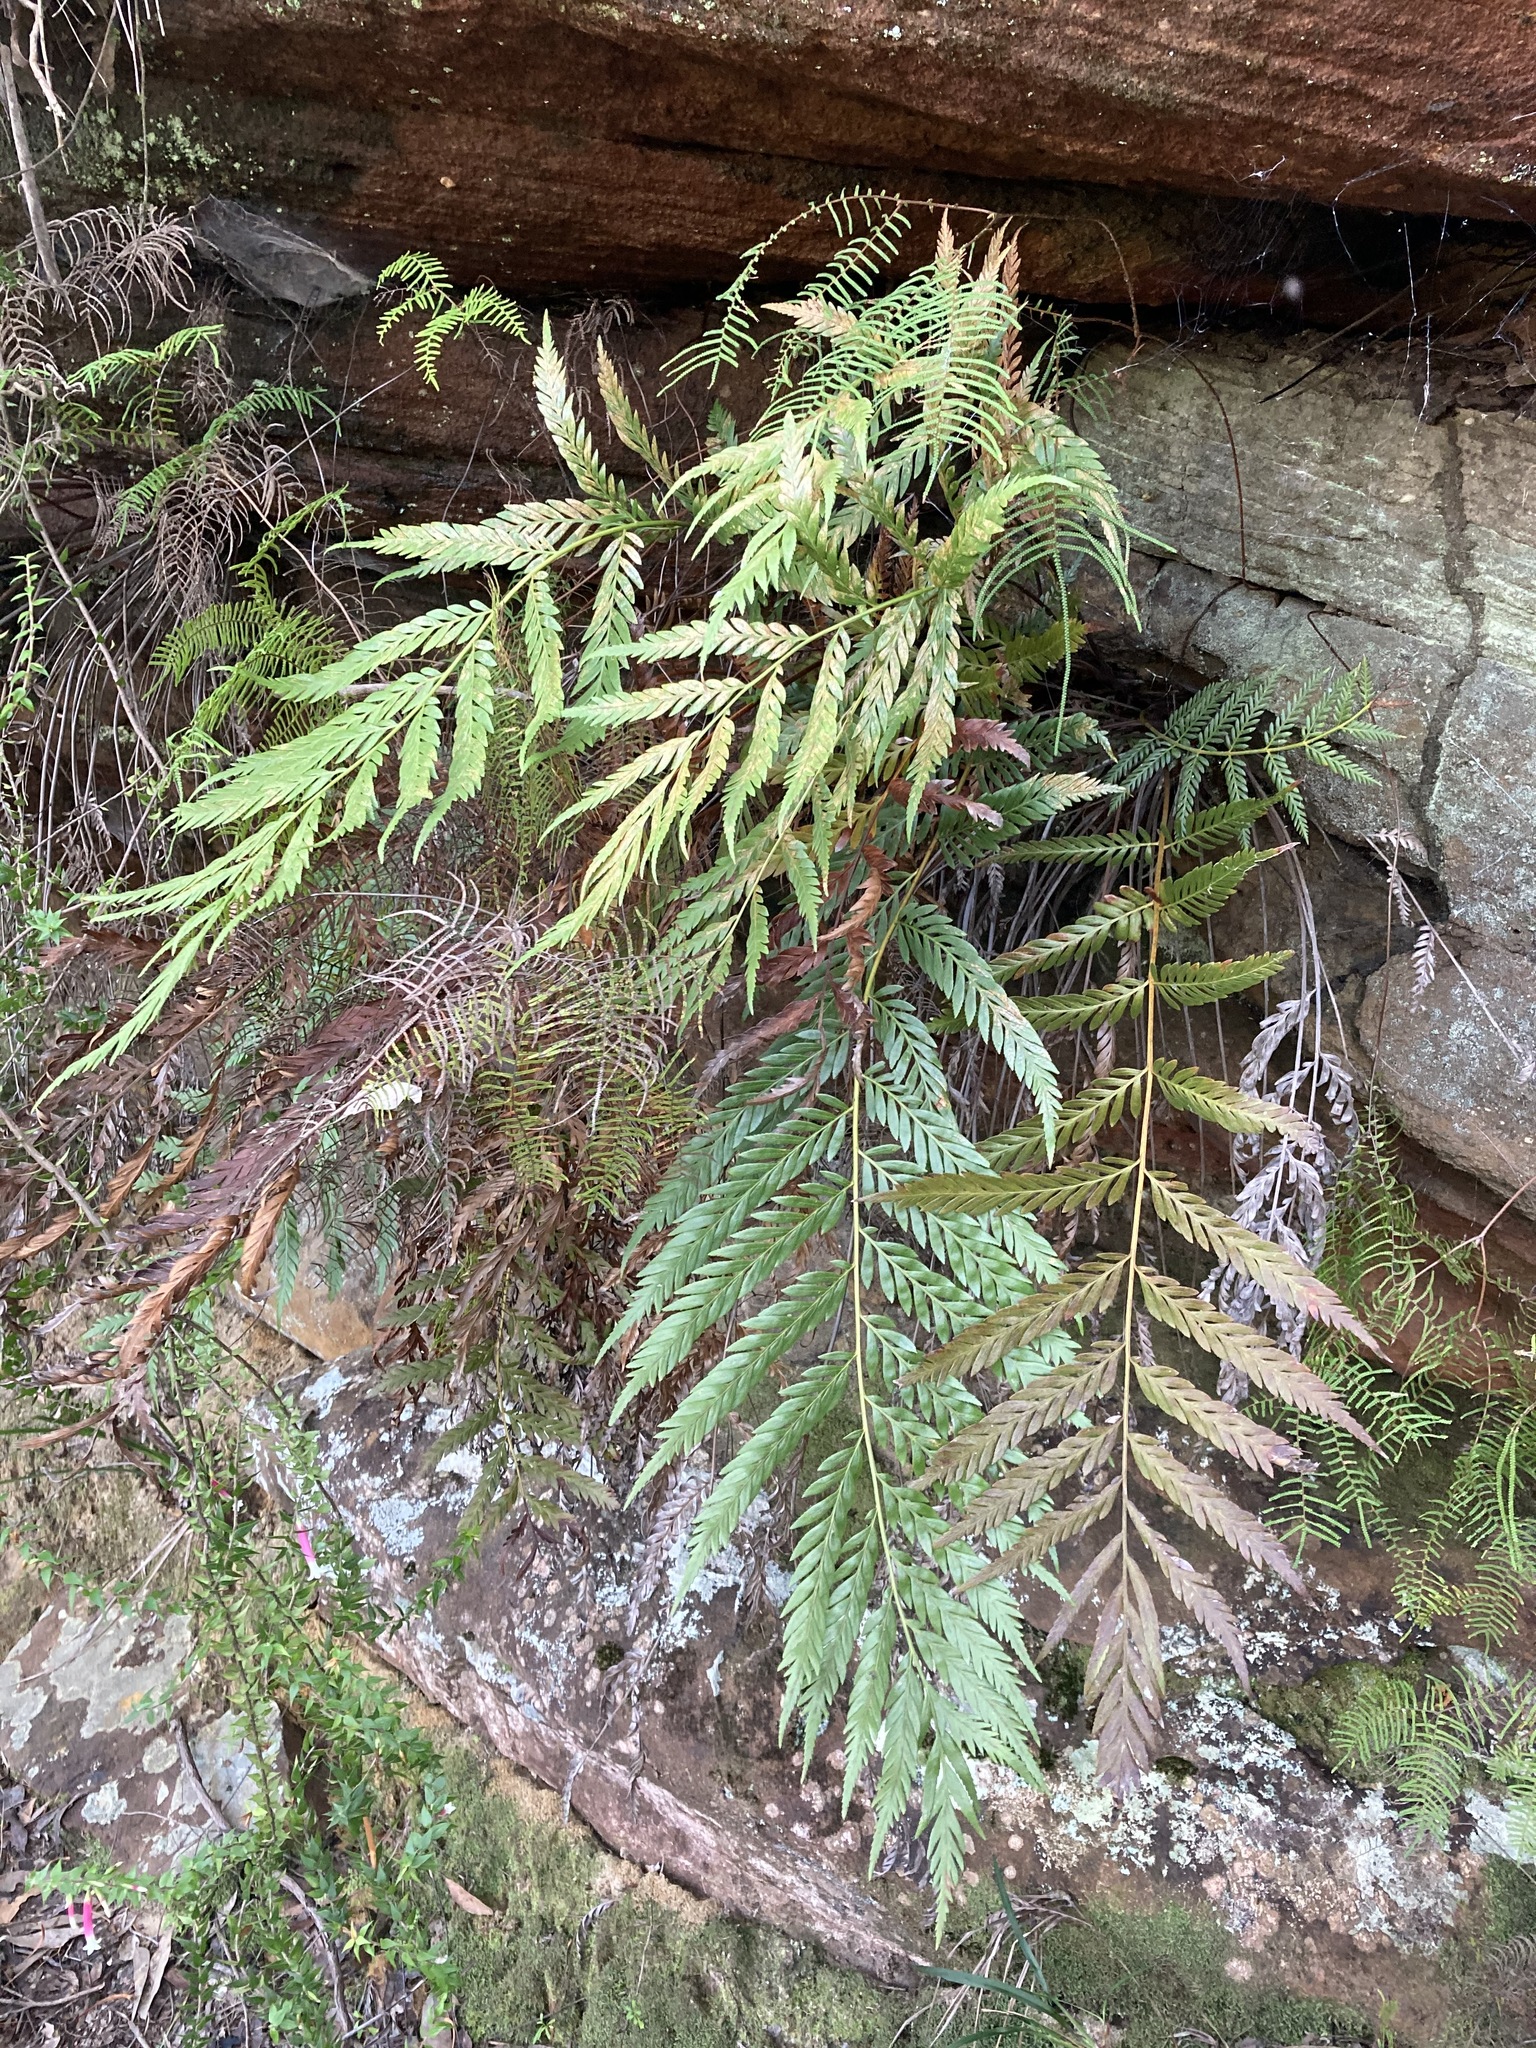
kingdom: Plantae
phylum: Tracheophyta
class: Polypodiopsida
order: Osmundales
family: Osmundaceae
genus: Todea
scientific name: Todea barbara
